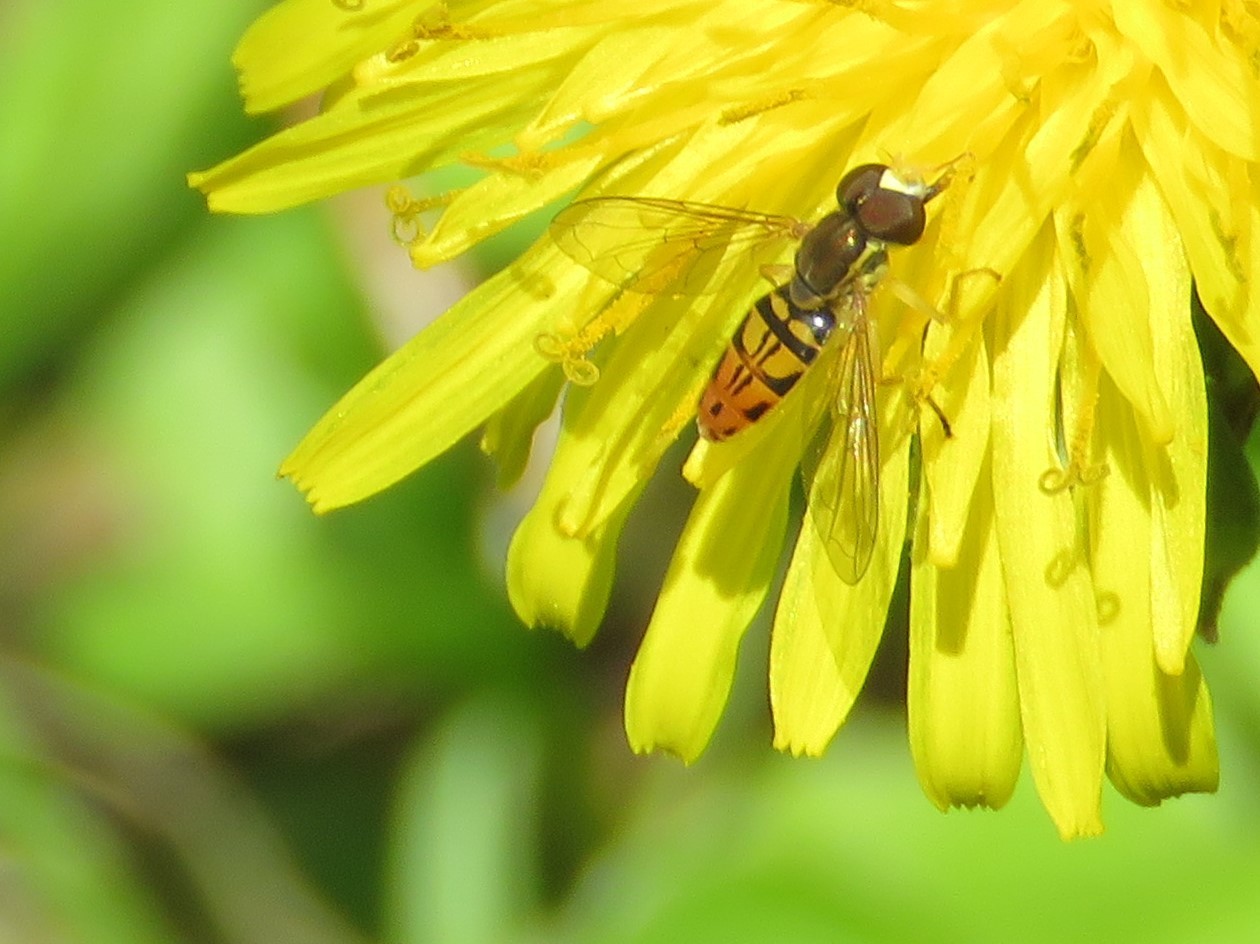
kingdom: Animalia
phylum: Arthropoda
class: Insecta
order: Diptera
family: Syrphidae
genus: Toxomerus
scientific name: Toxomerus marginatus
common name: Syrphid fly
